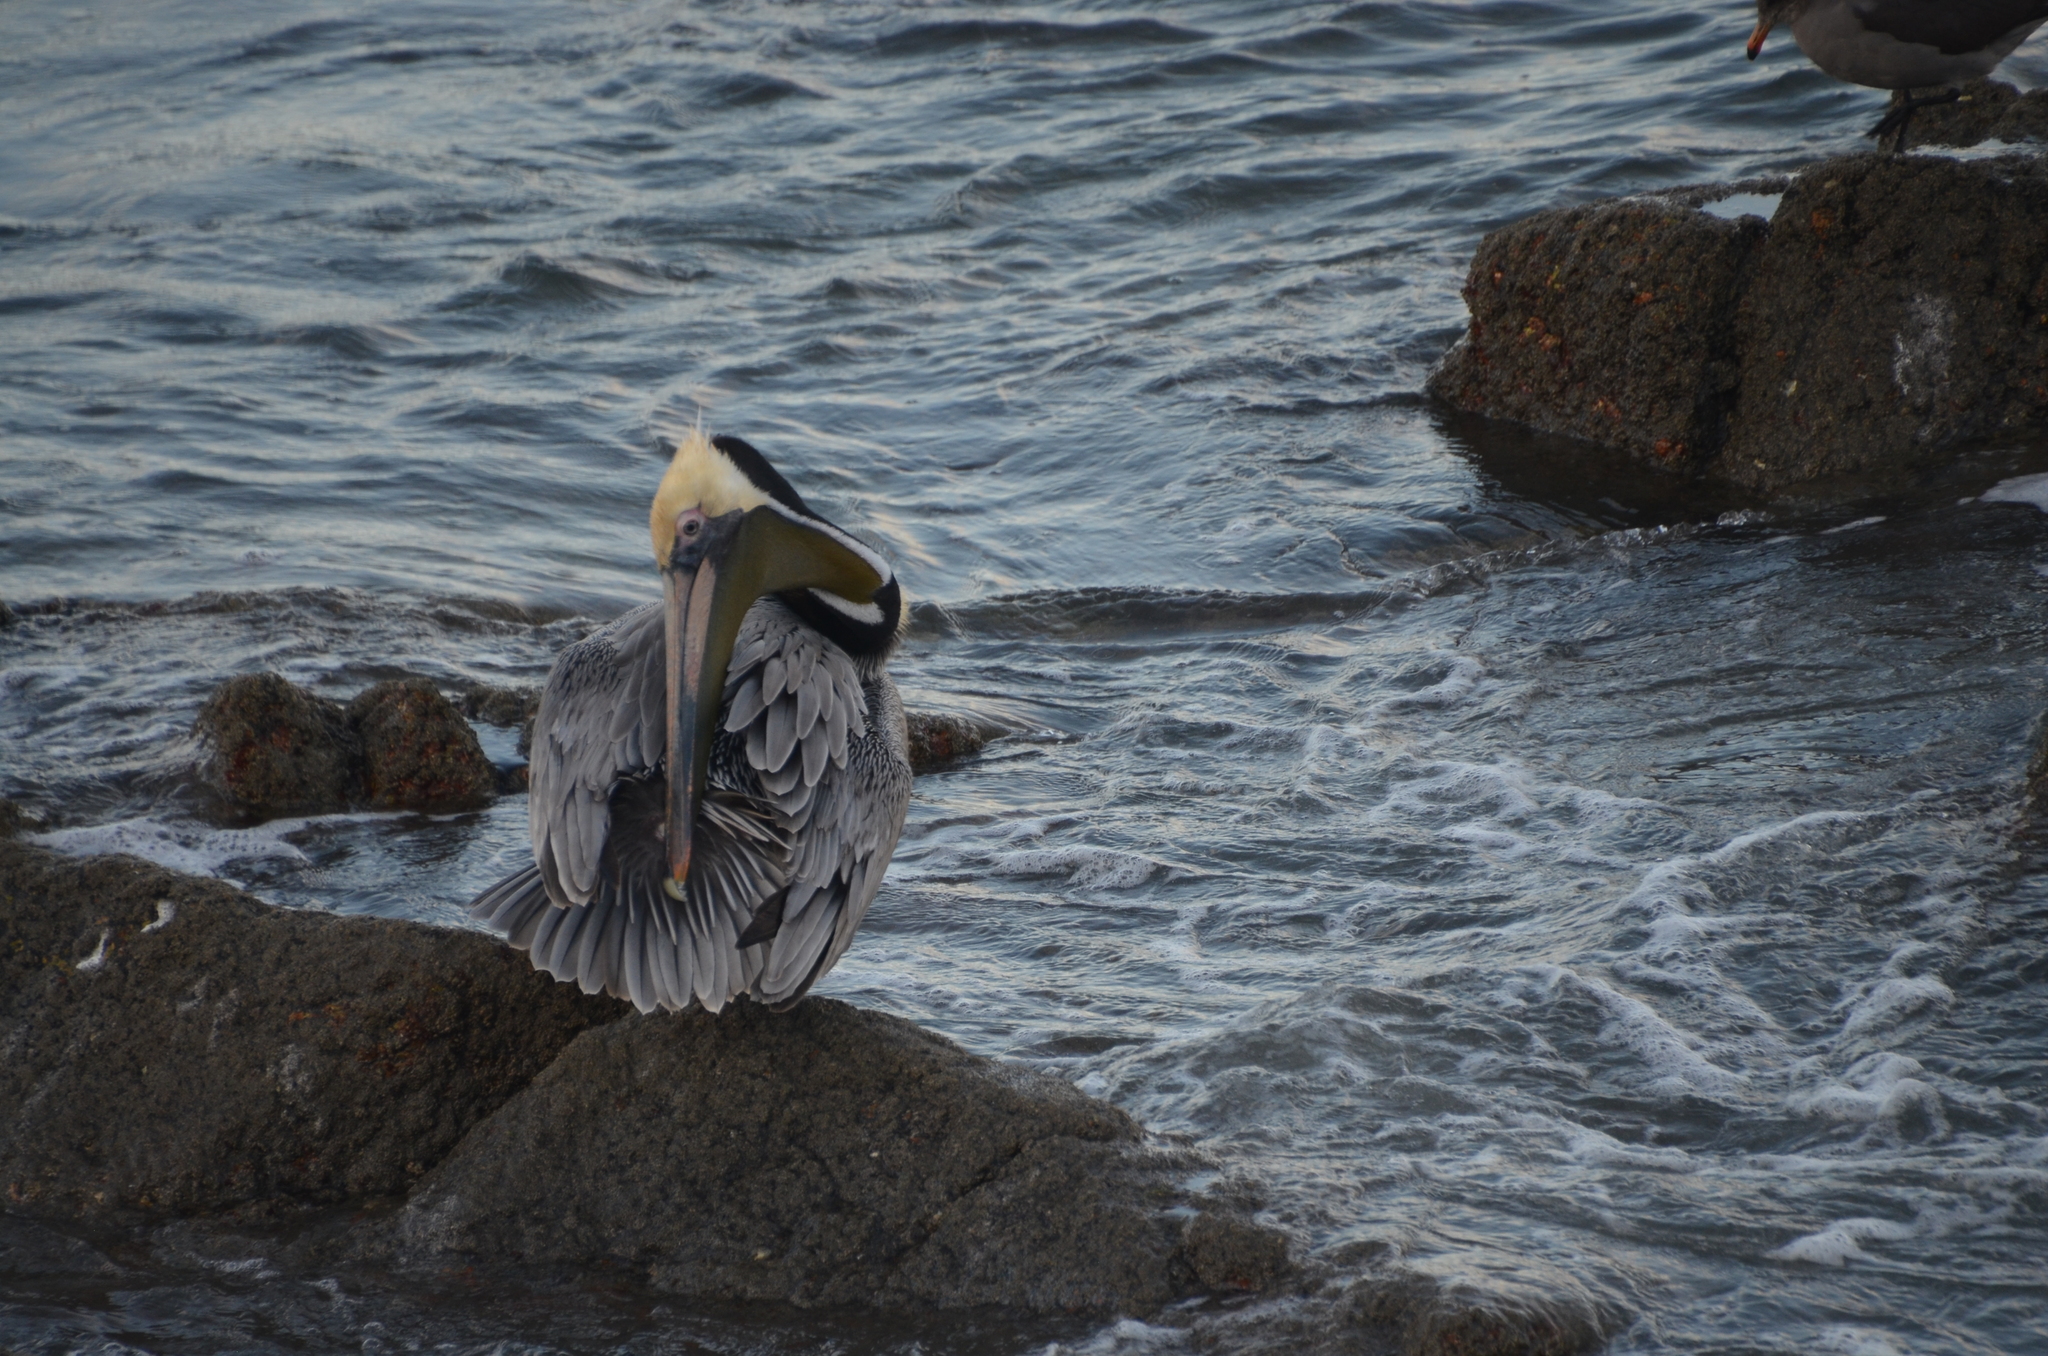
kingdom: Animalia
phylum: Chordata
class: Aves
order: Pelecaniformes
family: Pelecanidae
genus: Pelecanus
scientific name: Pelecanus occidentalis
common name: Brown pelican
